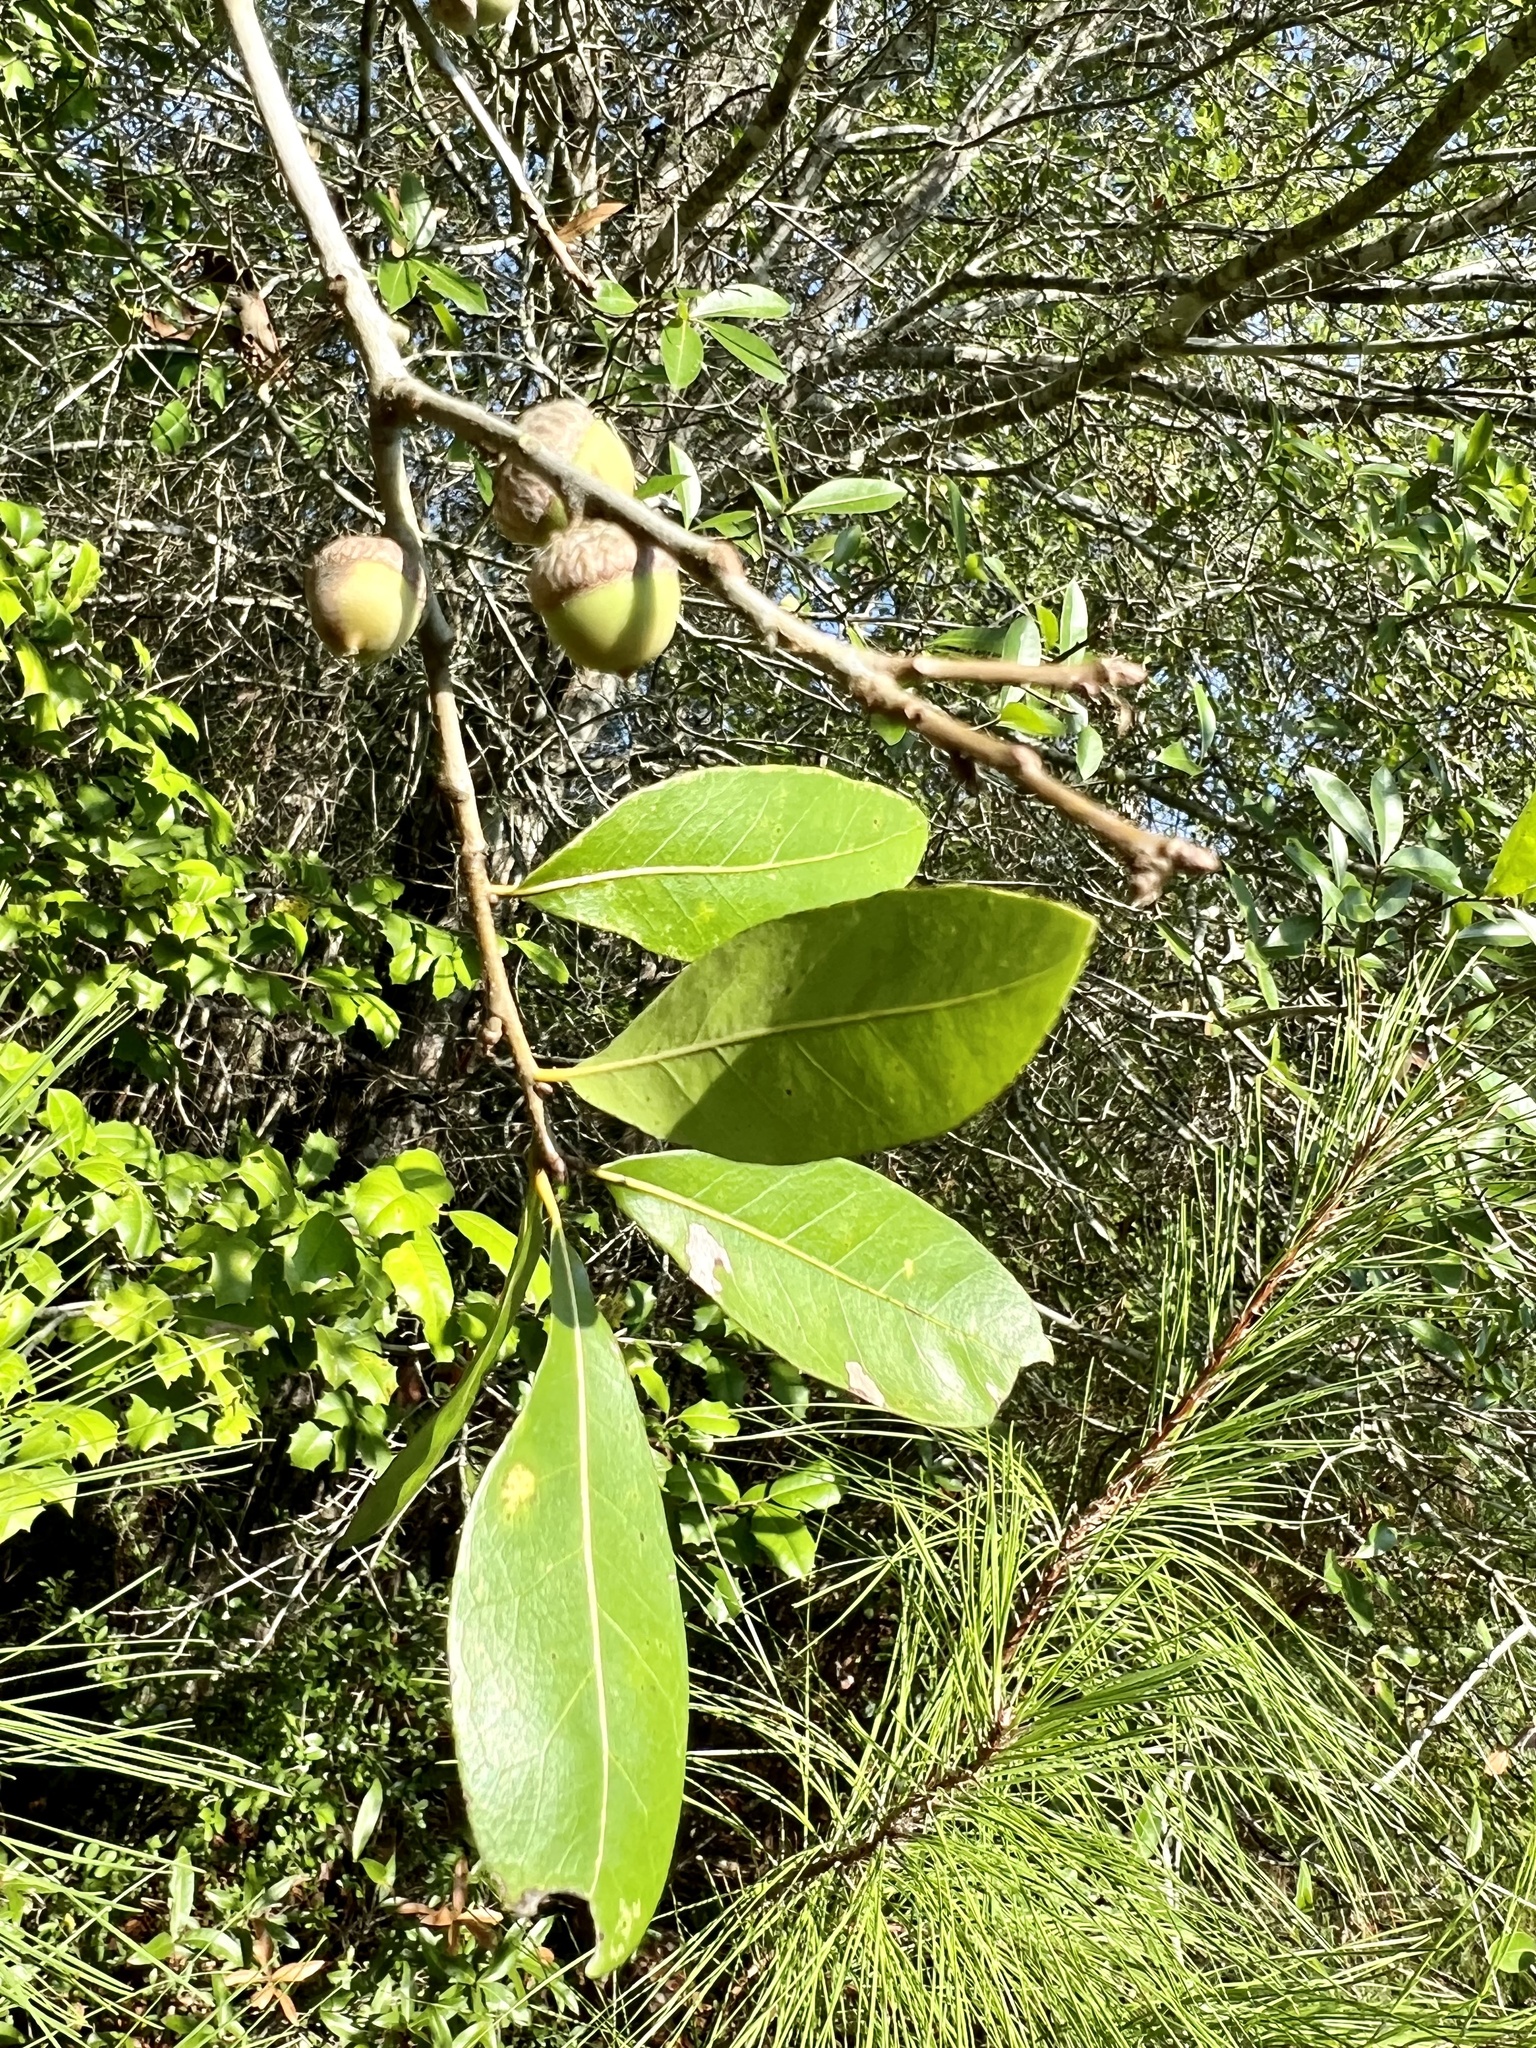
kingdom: Plantae
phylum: Tracheophyta
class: Magnoliopsida
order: Fagales
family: Fagaceae
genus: Quercus
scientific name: Quercus hemisphaerica
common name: Darlington oak
